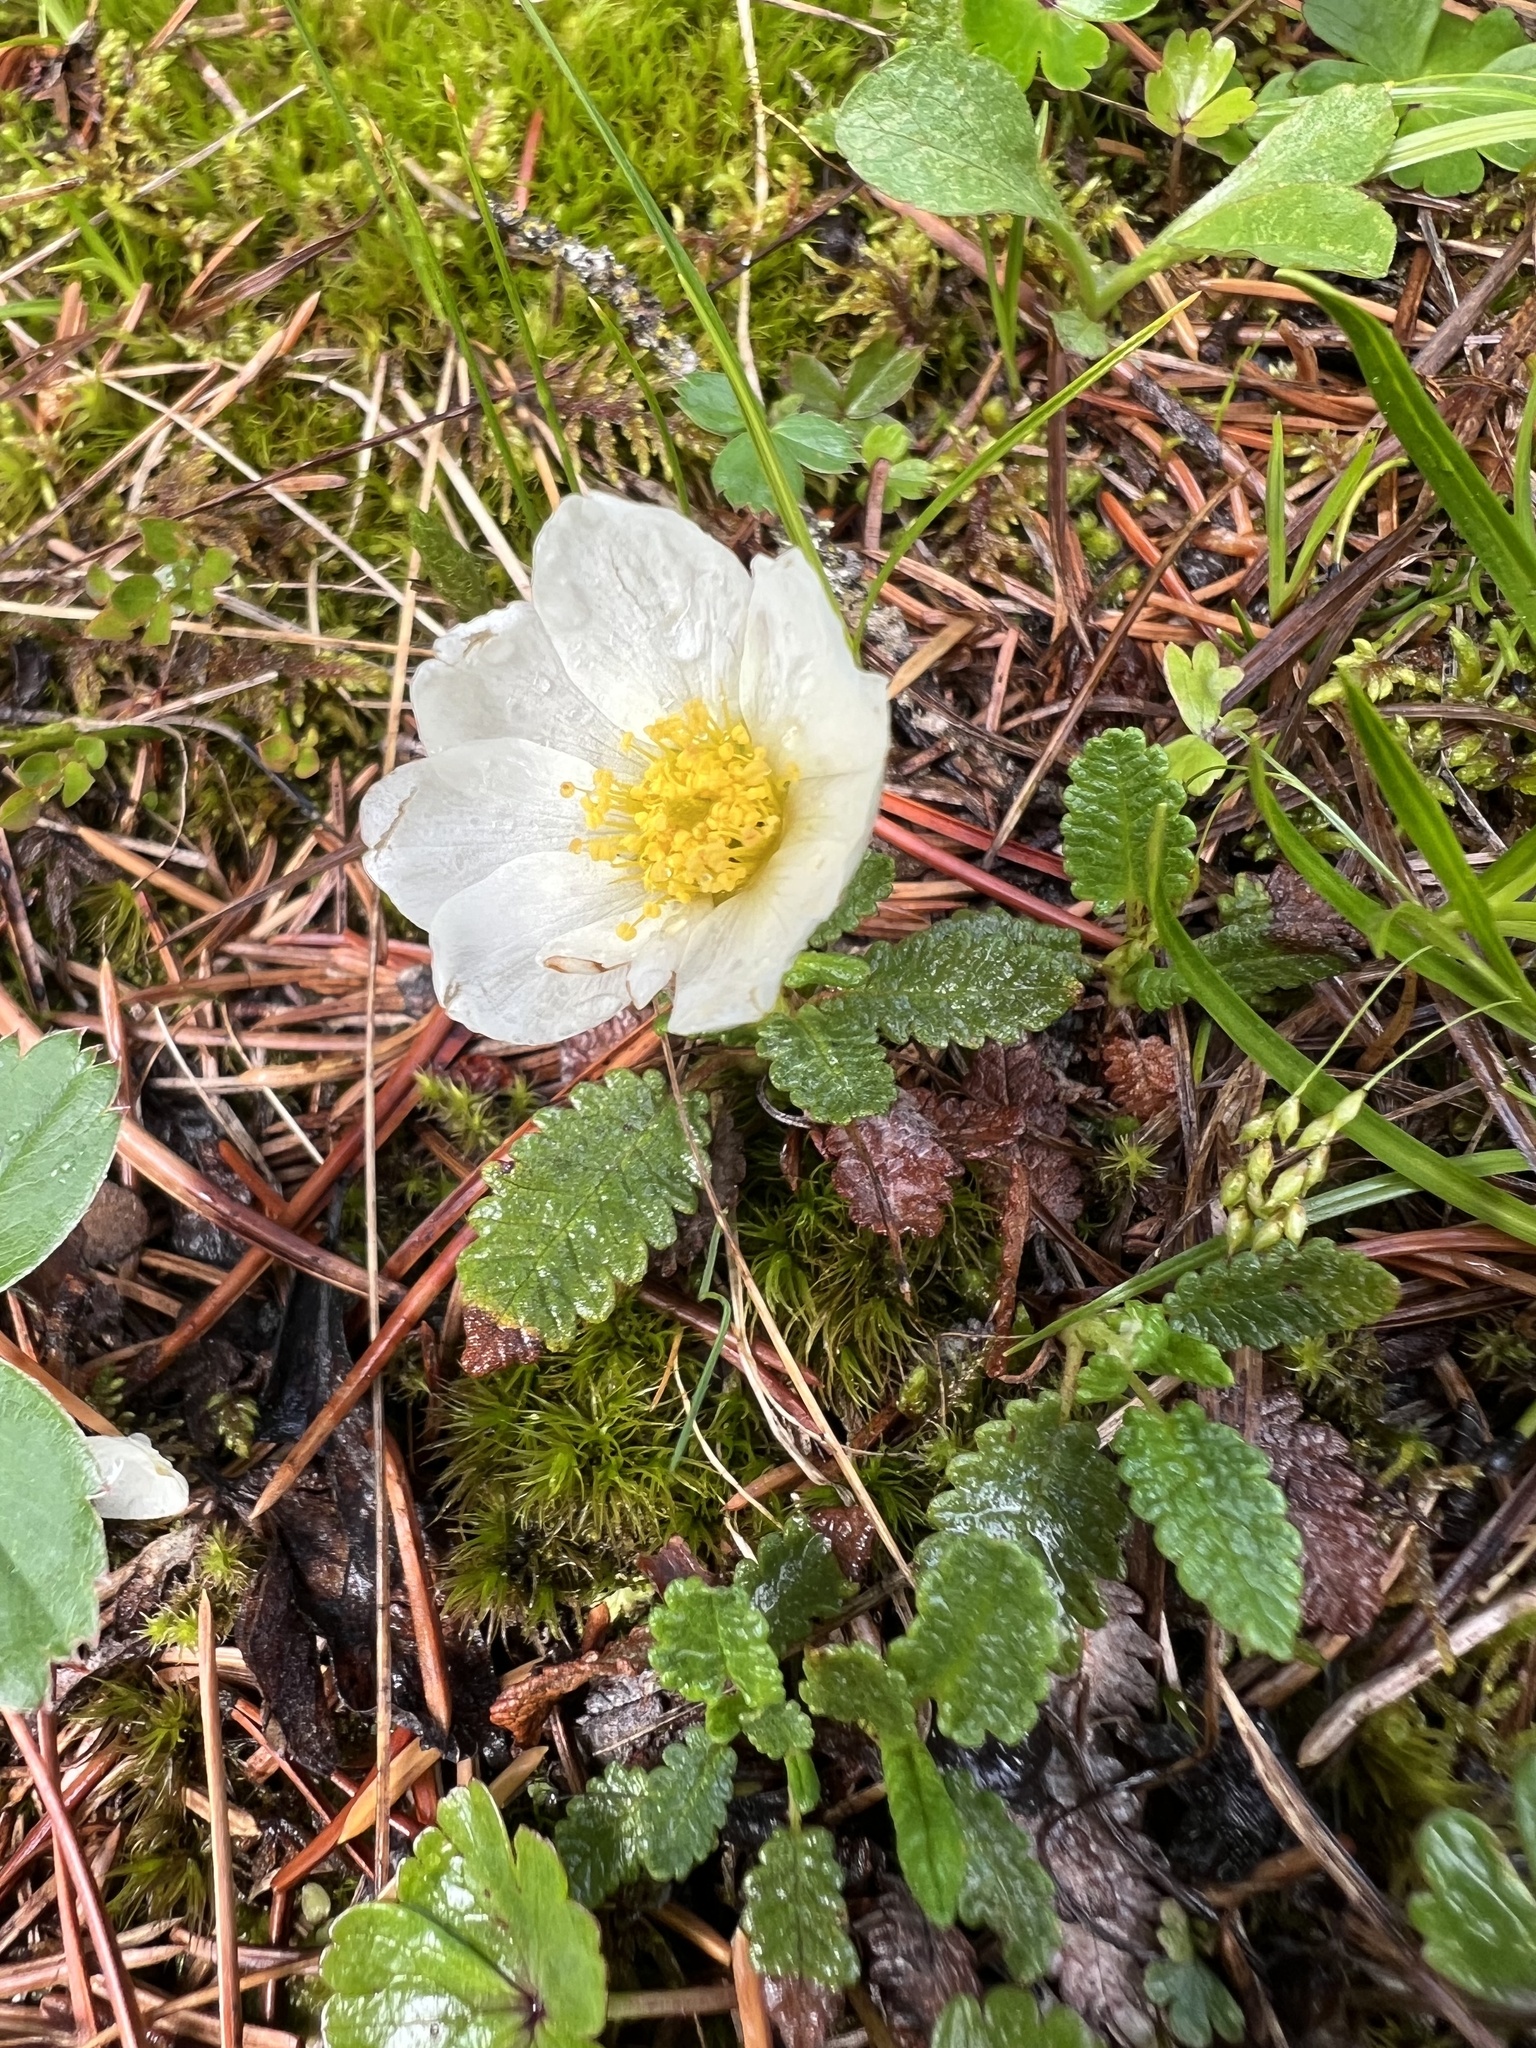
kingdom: Plantae
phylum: Tracheophyta
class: Magnoliopsida
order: Rosales
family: Rosaceae
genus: Dryas
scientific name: Dryas octopetala
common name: Eight-petal mountain-avens
